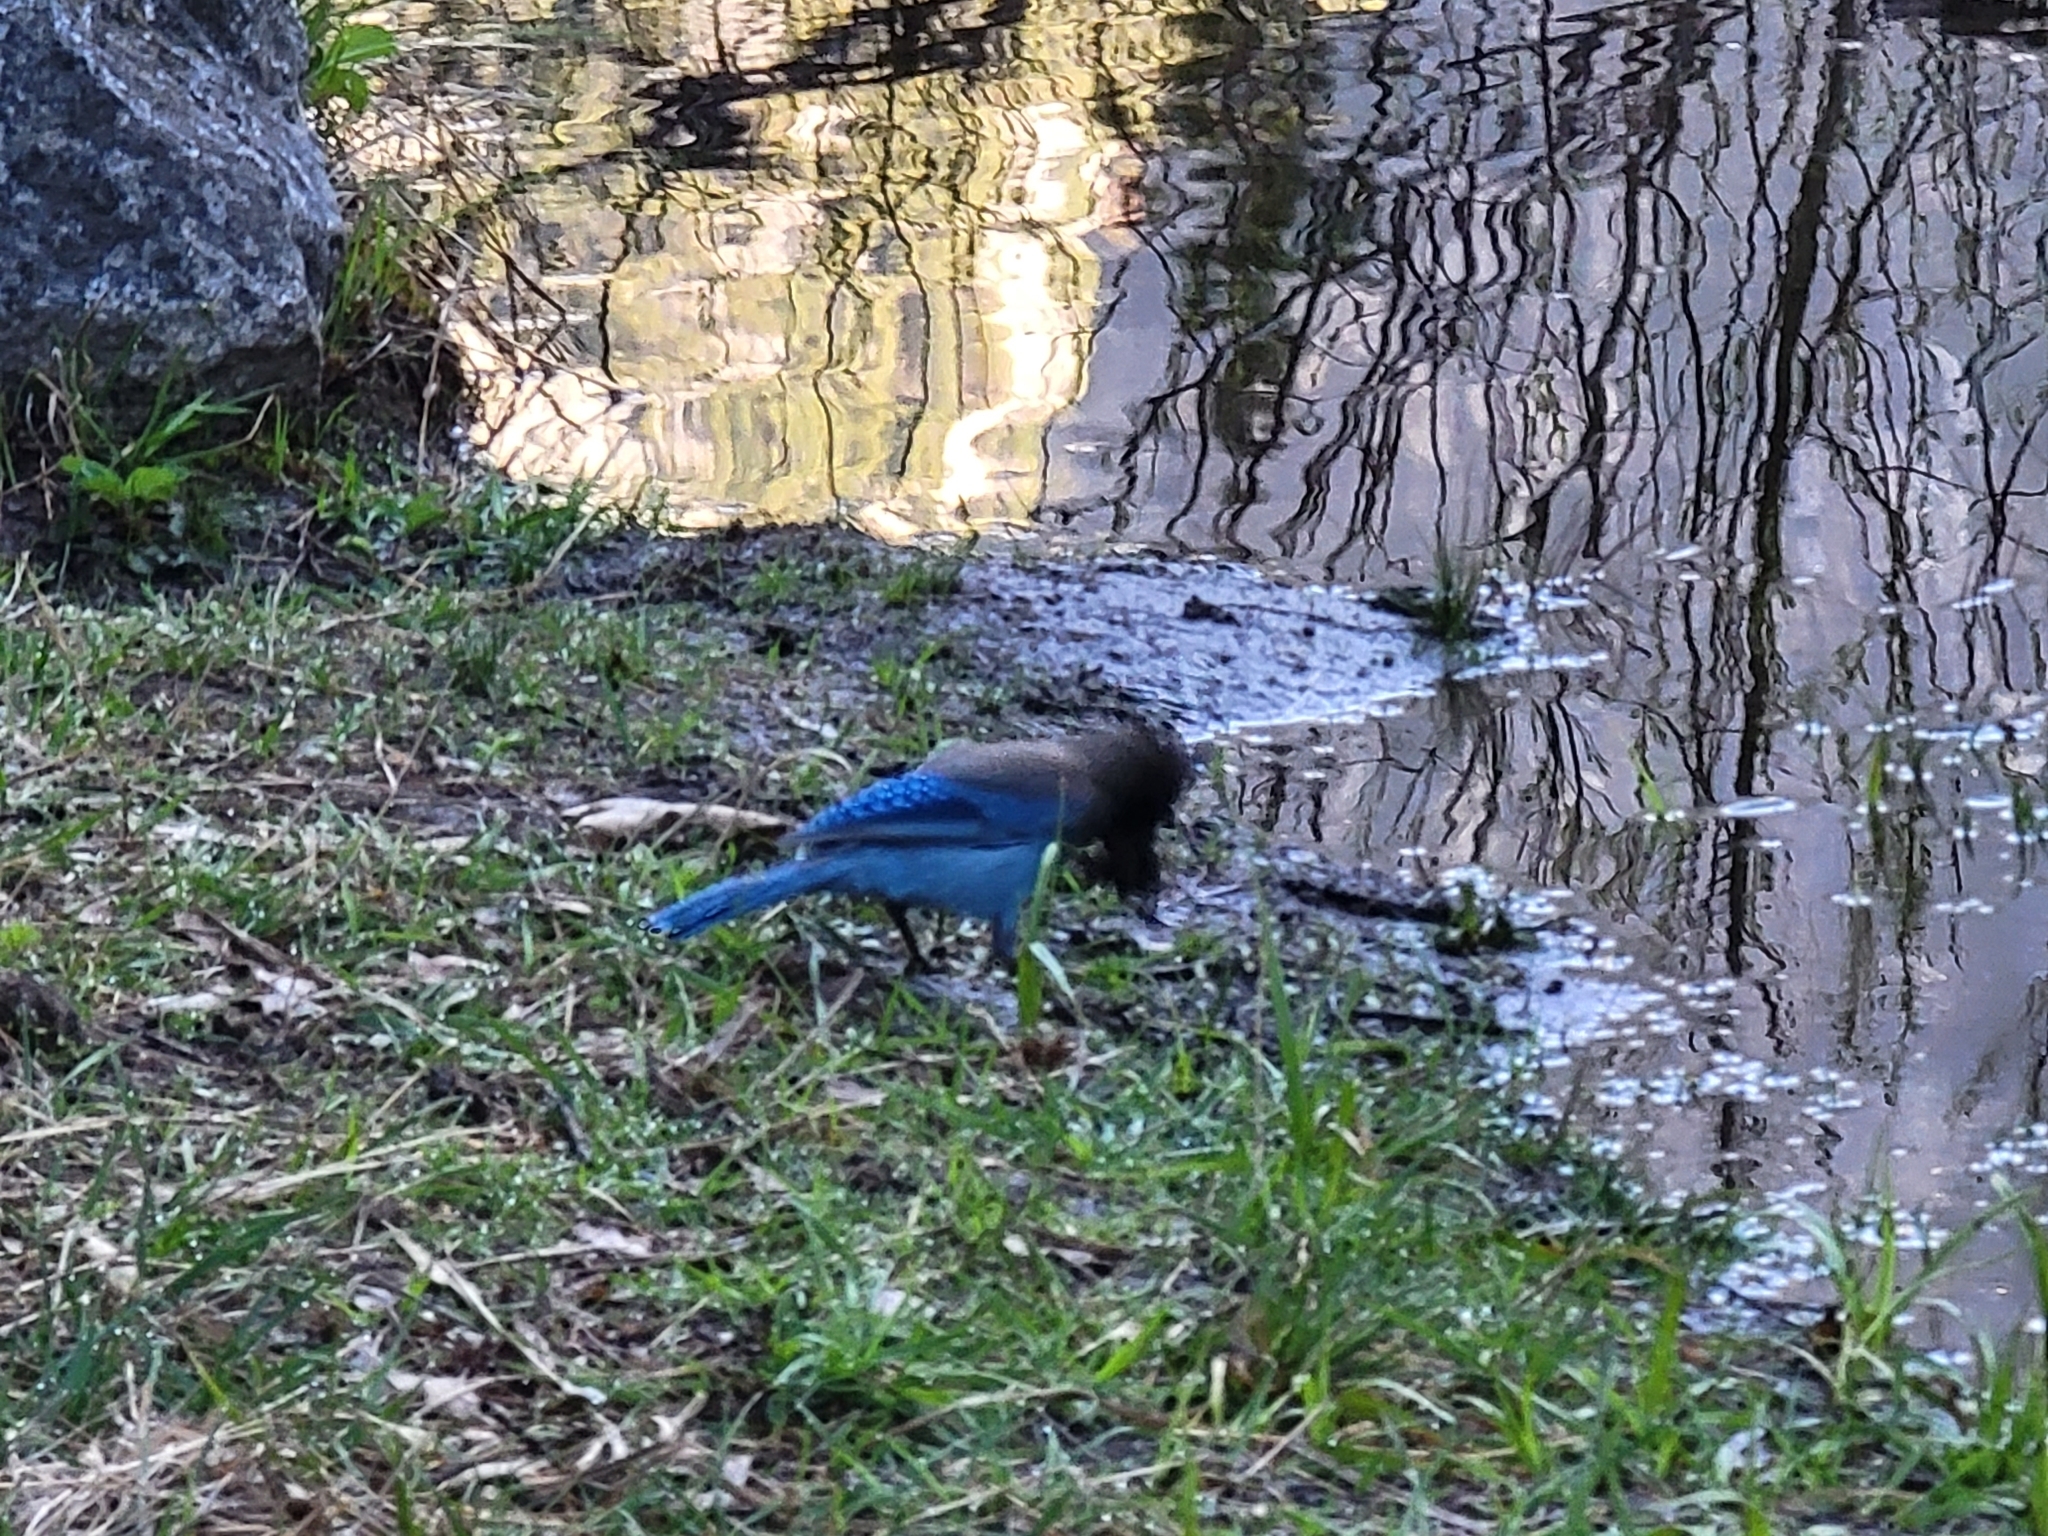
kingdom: Animalia
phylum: Chordata
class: Aves
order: Passeriformes
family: Corvidae
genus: Cyanocitta
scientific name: Cyanocitta stelleri
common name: Steller's jay
